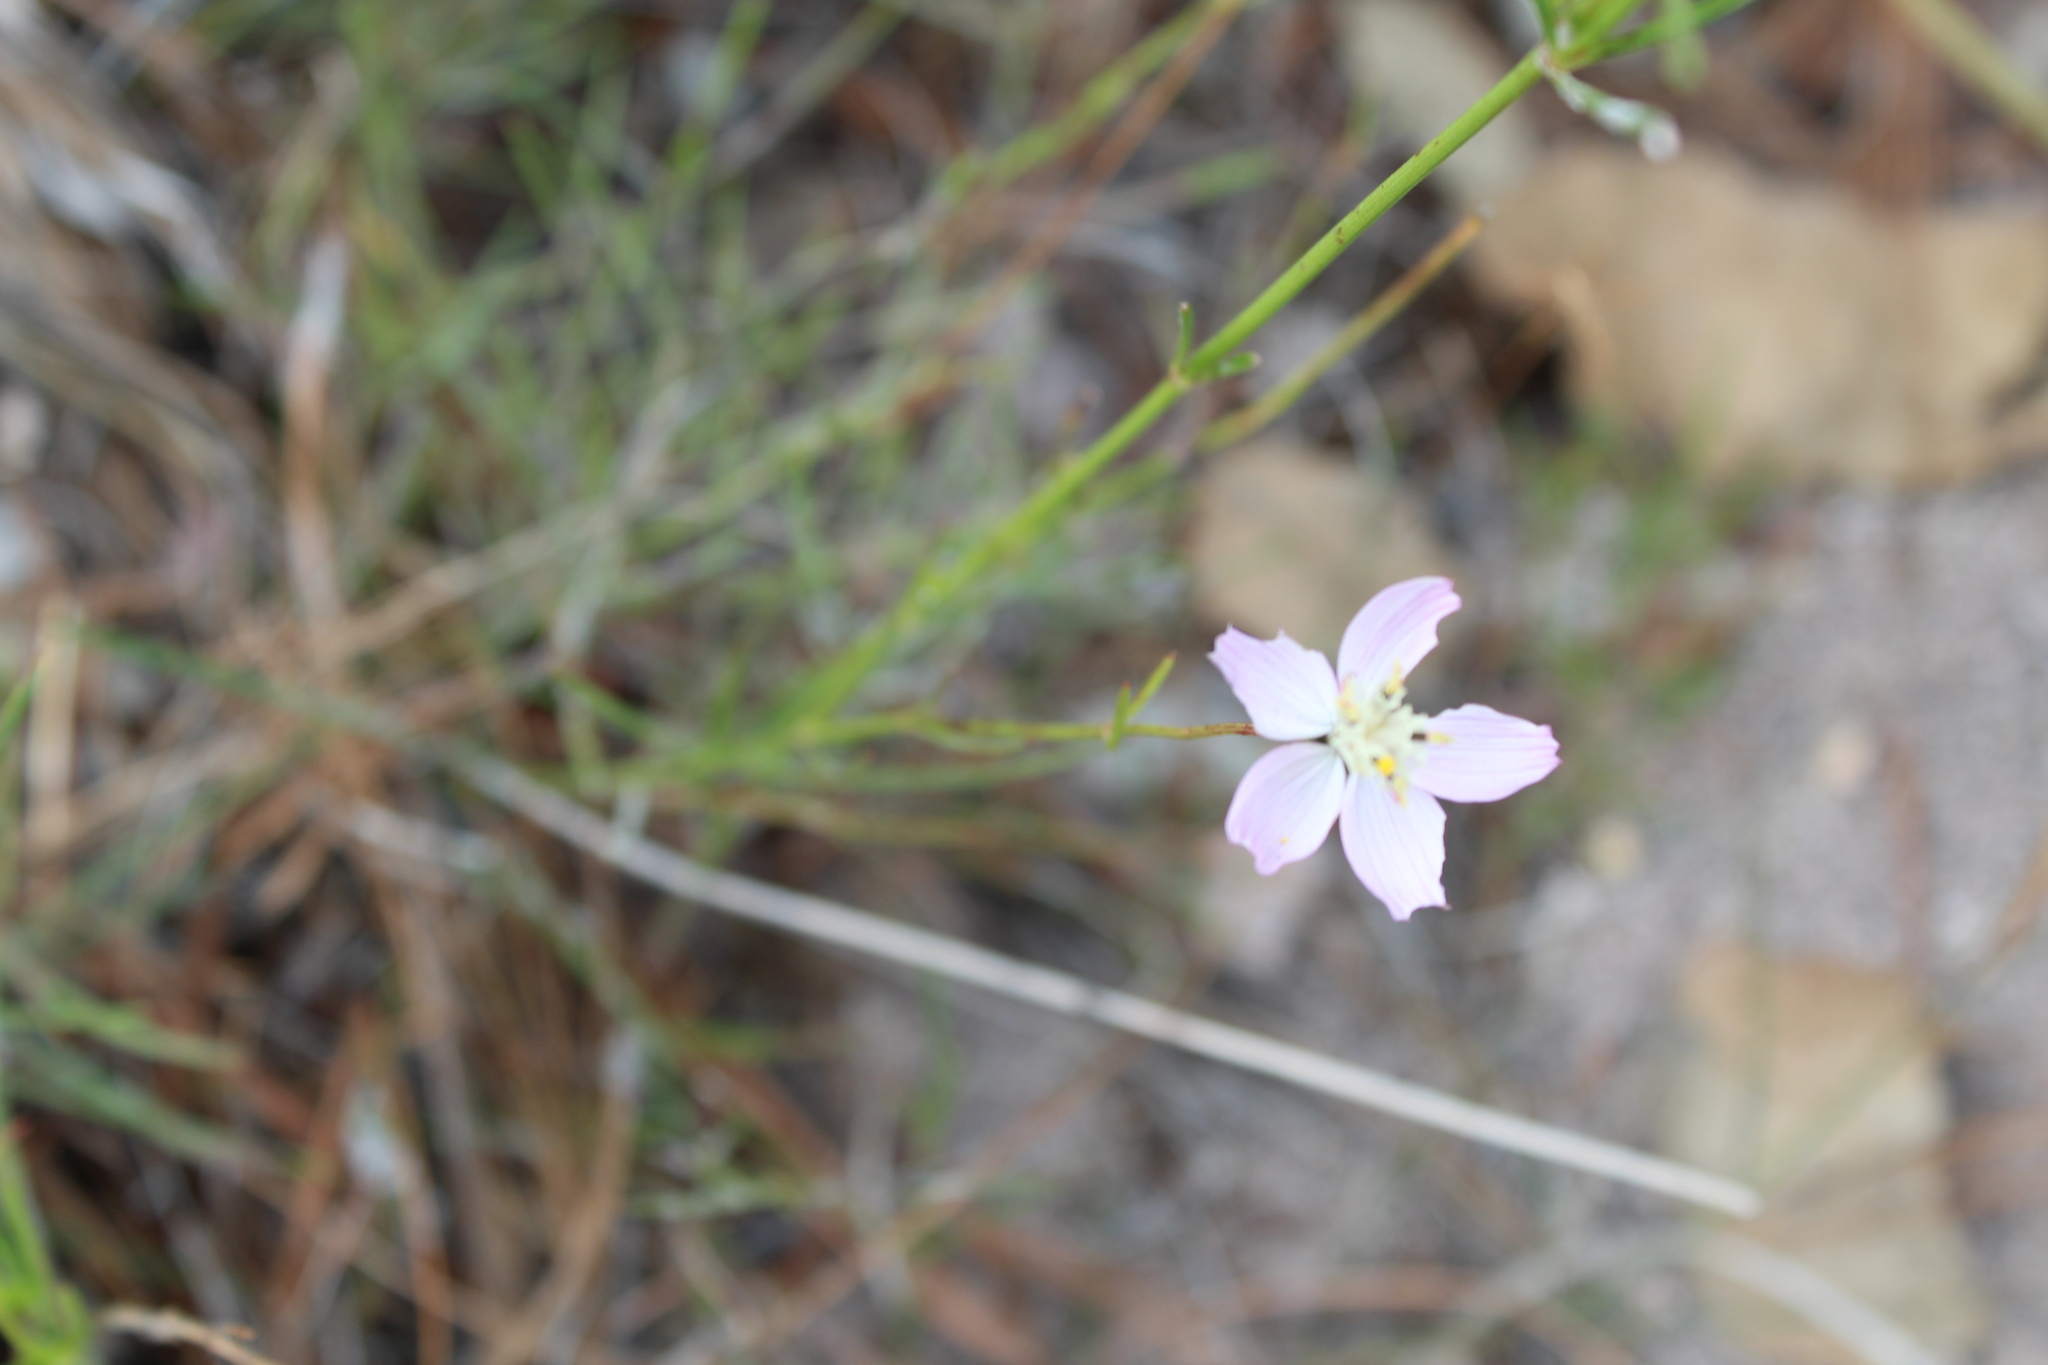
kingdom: Plantae
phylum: Tracheophyta
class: Magnoliopsida
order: Asterales
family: Asteraceae
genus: Cosmos
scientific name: Cosmos ochroleucoflorus
